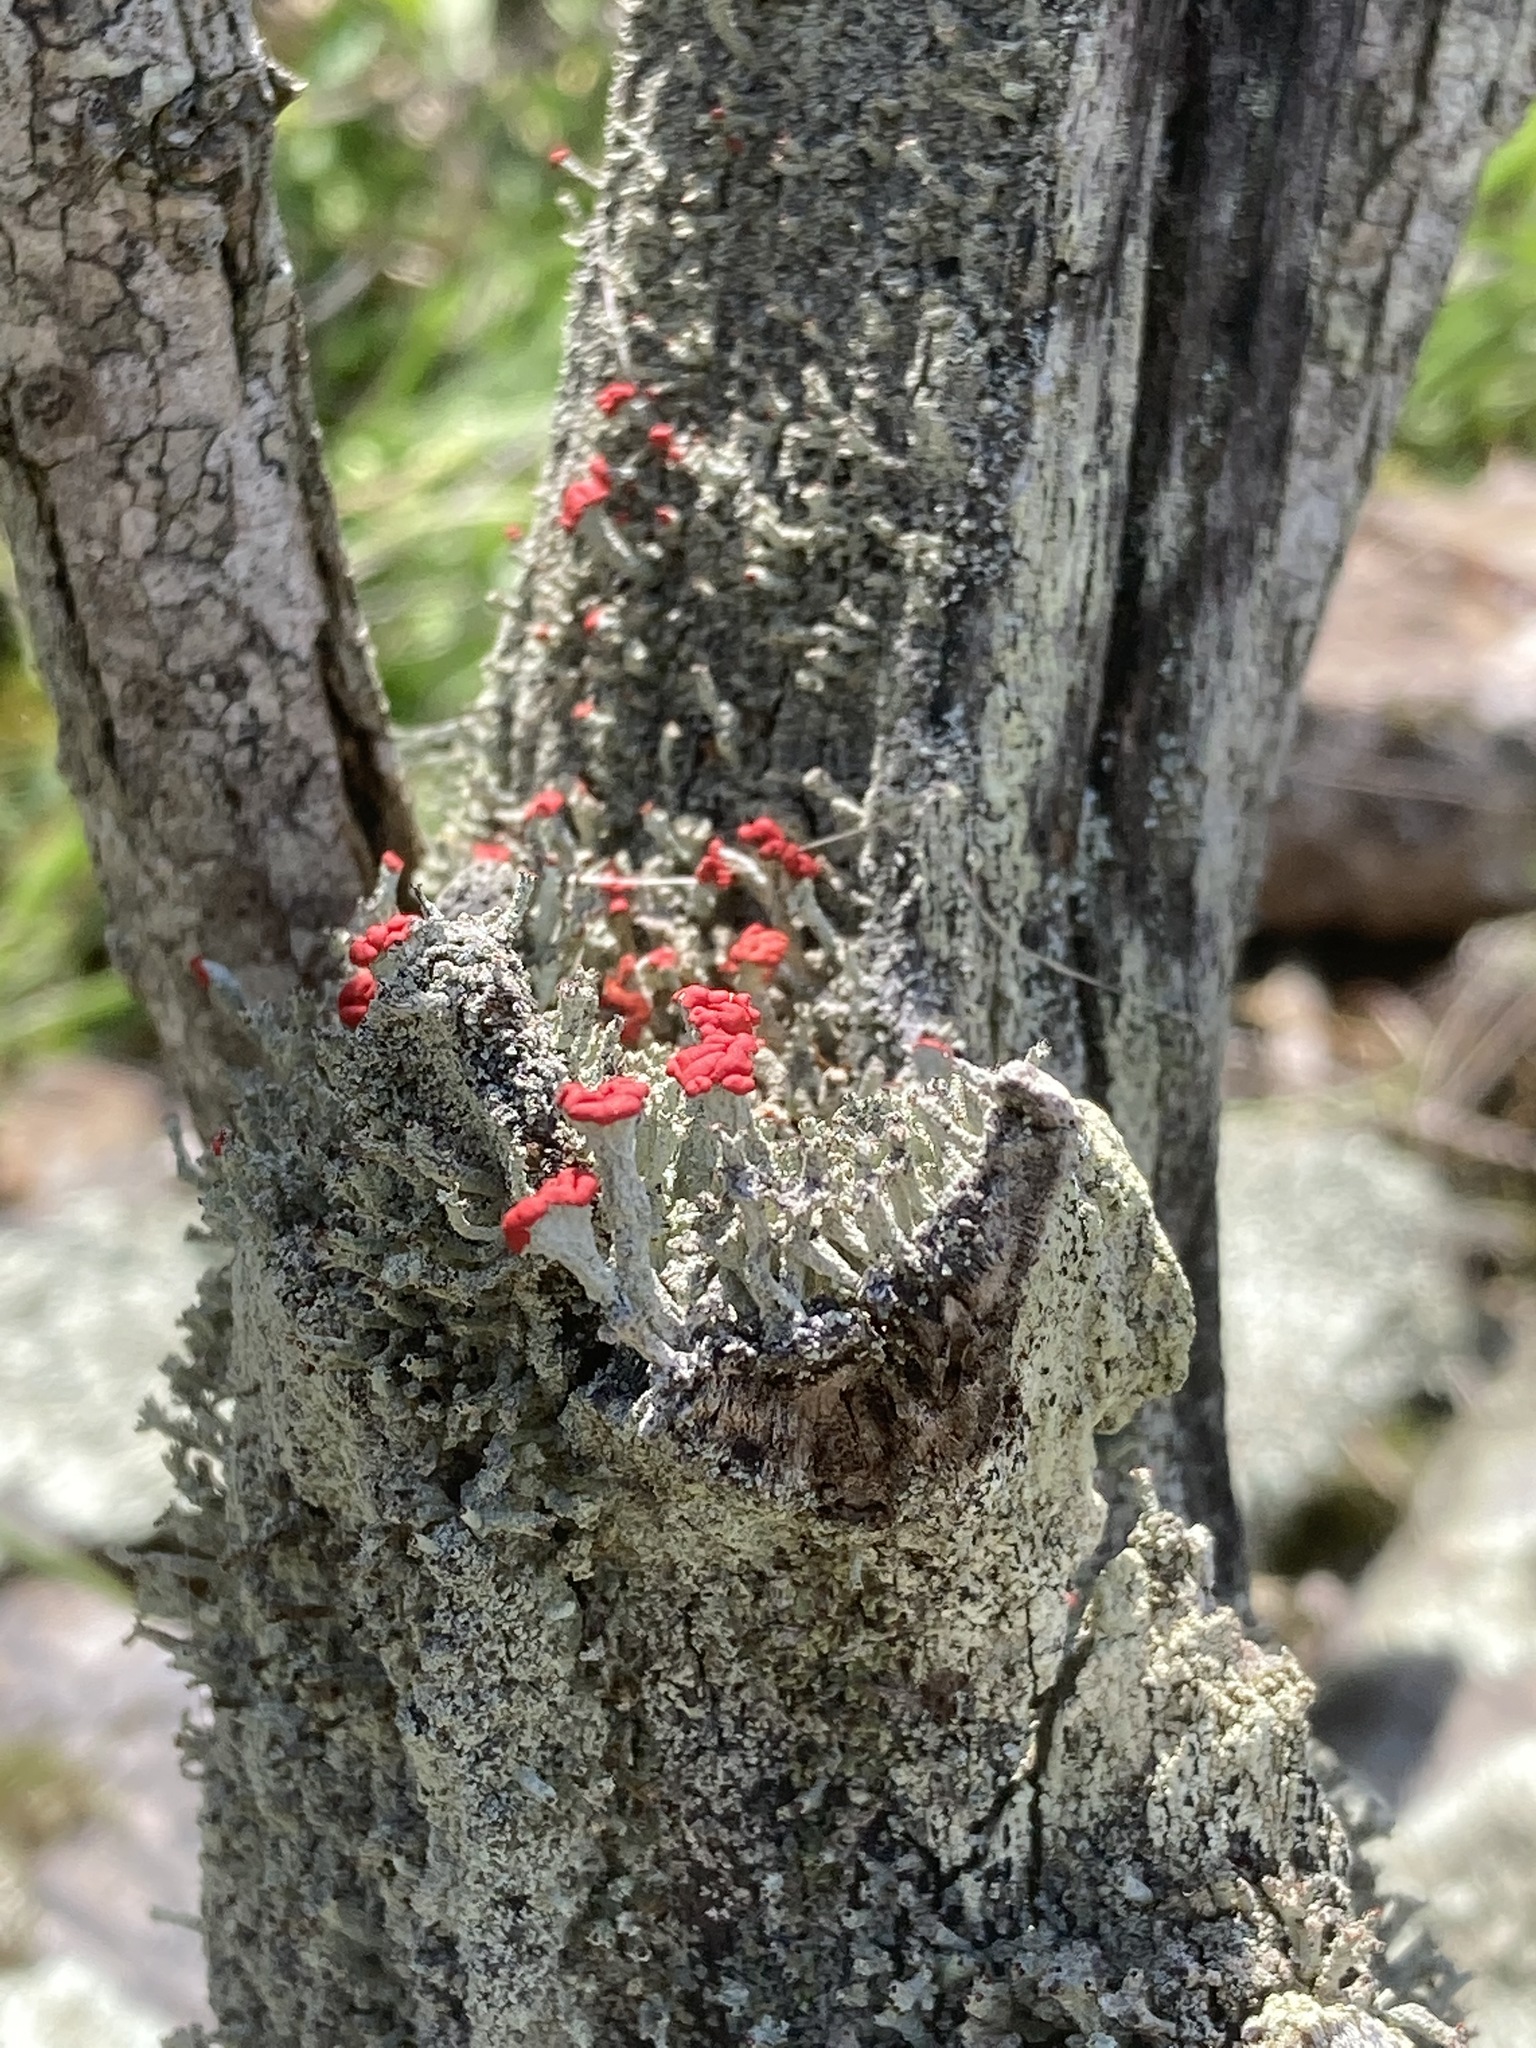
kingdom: Fungi
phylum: Ascomycota
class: Lecanoromycetes
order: Lecanorales
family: Cladoniaceae
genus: Cladonia
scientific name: Cladonia cristatella
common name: British soldier lichen
